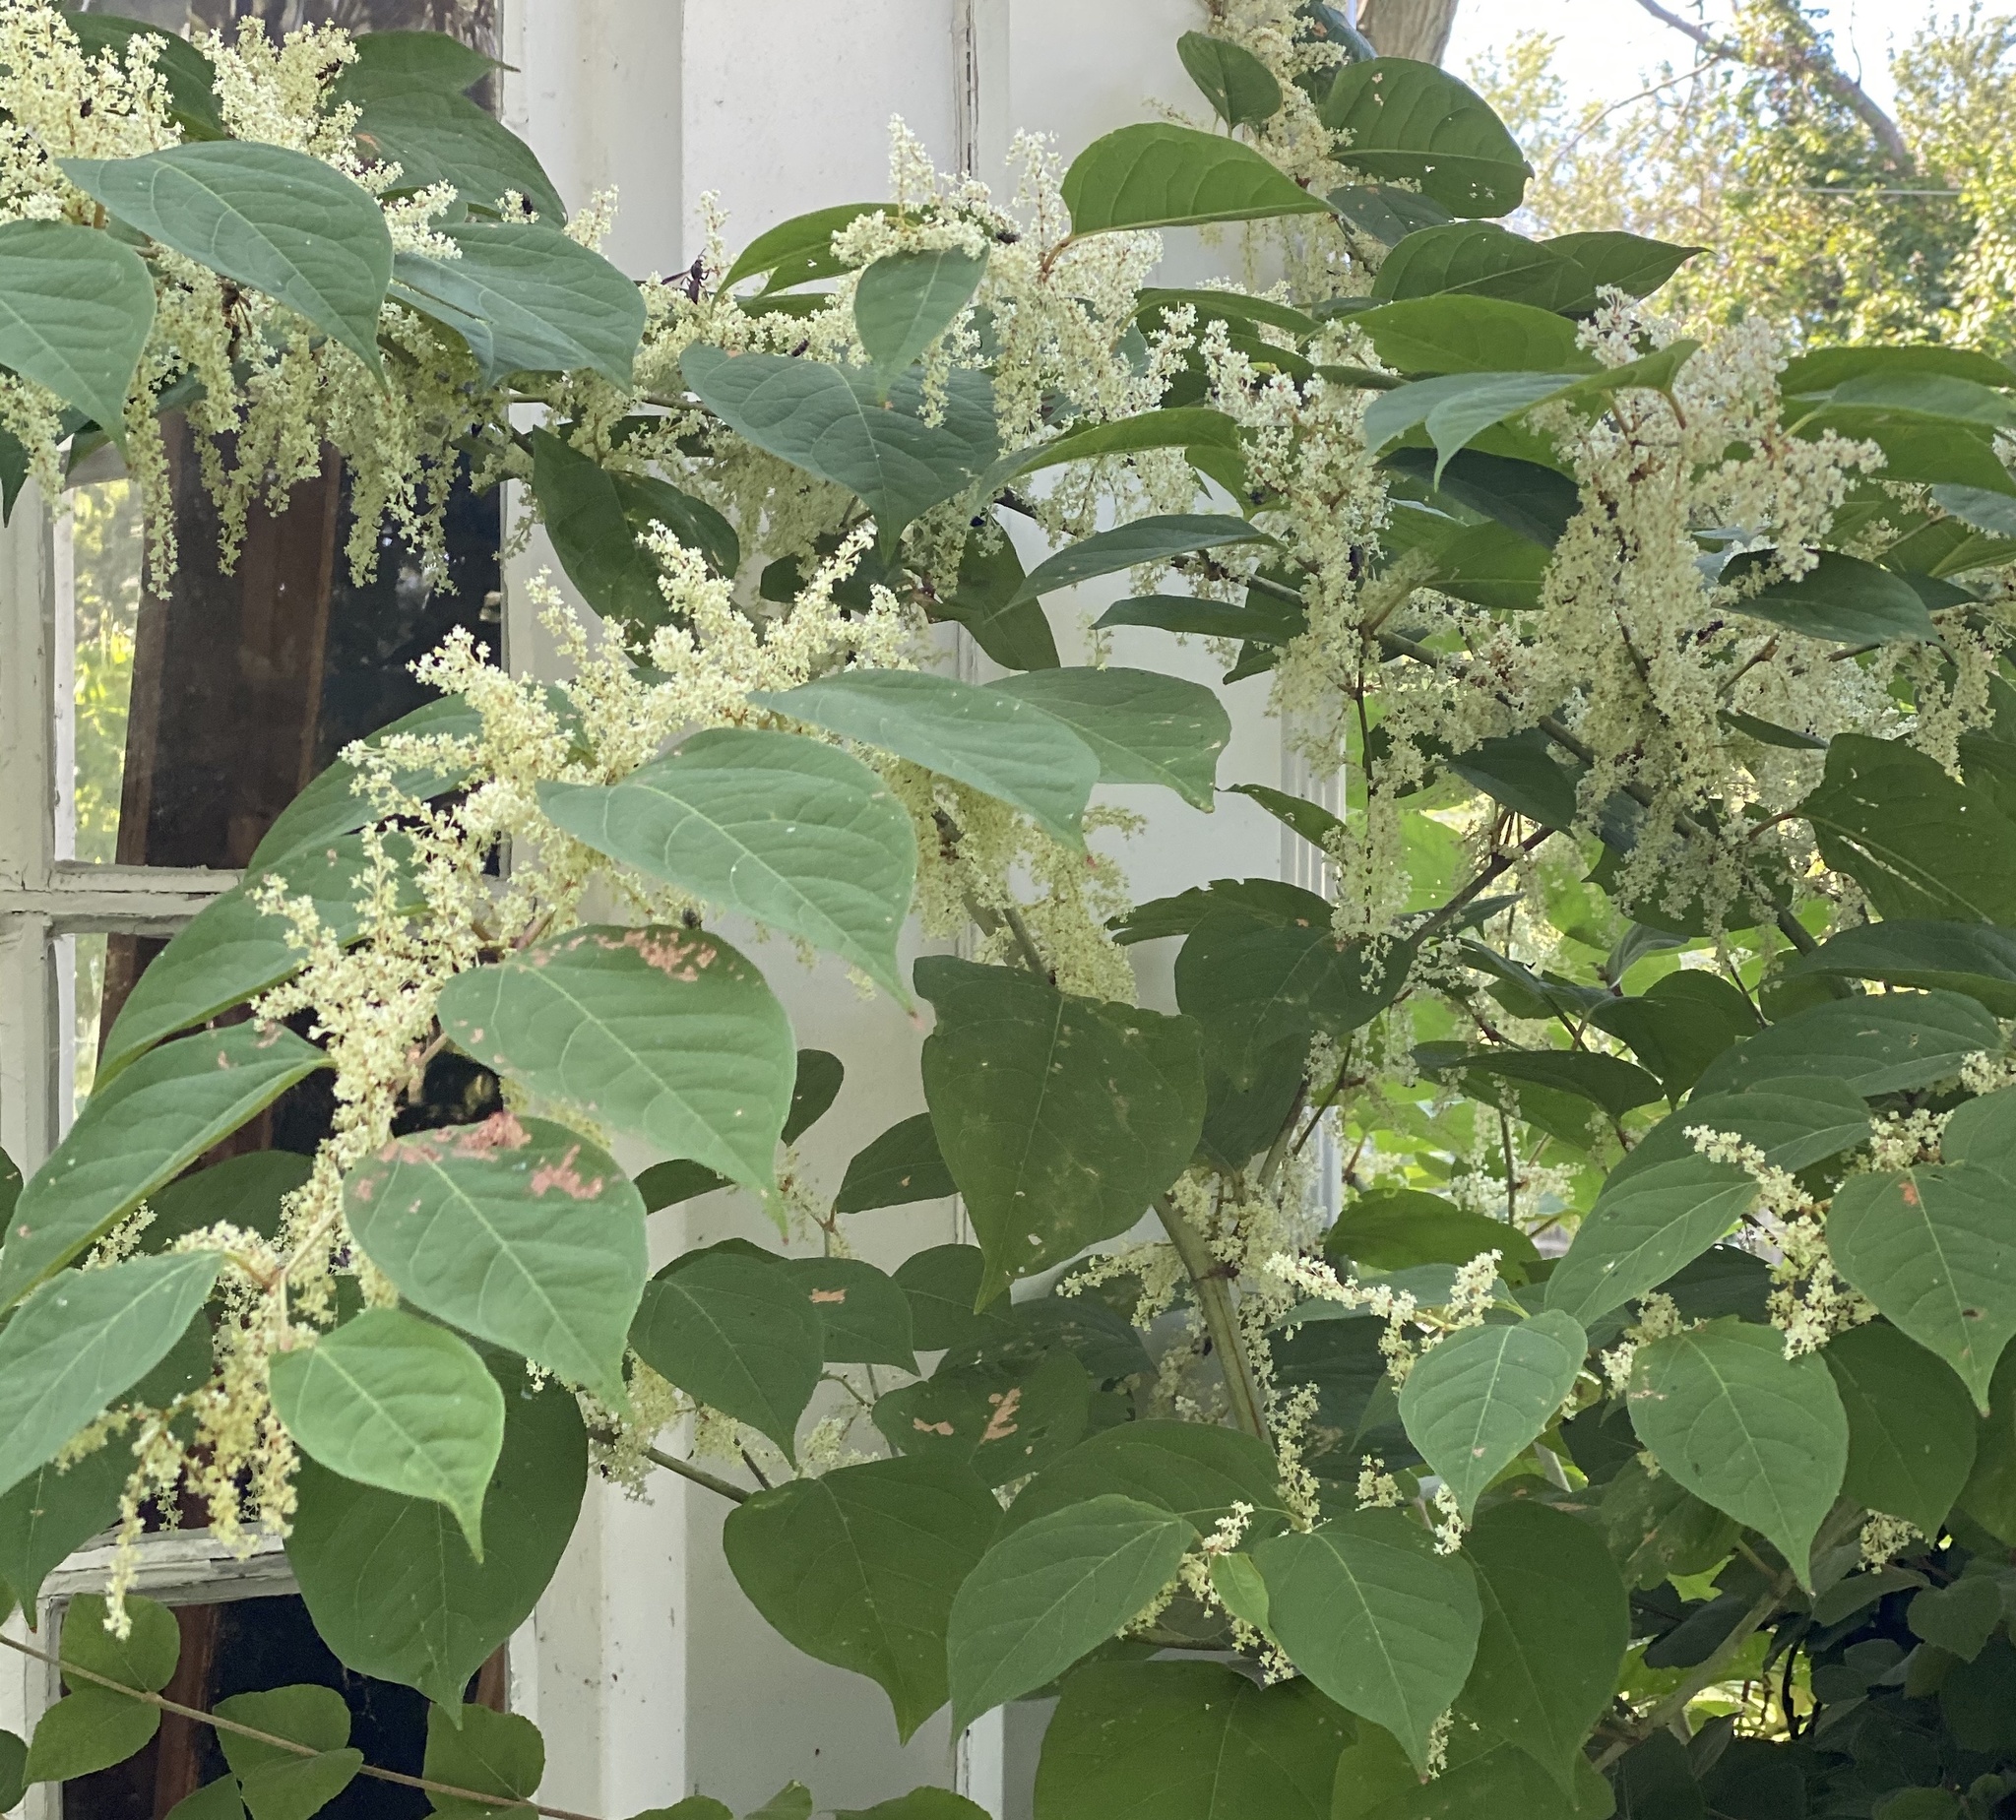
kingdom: Plantae
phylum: Tracheophyta
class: Magnoliopsida
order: Caryophyllales
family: Polygonaceae
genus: Reynoutria
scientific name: Reynoutria japonica
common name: Japanese knotweed
